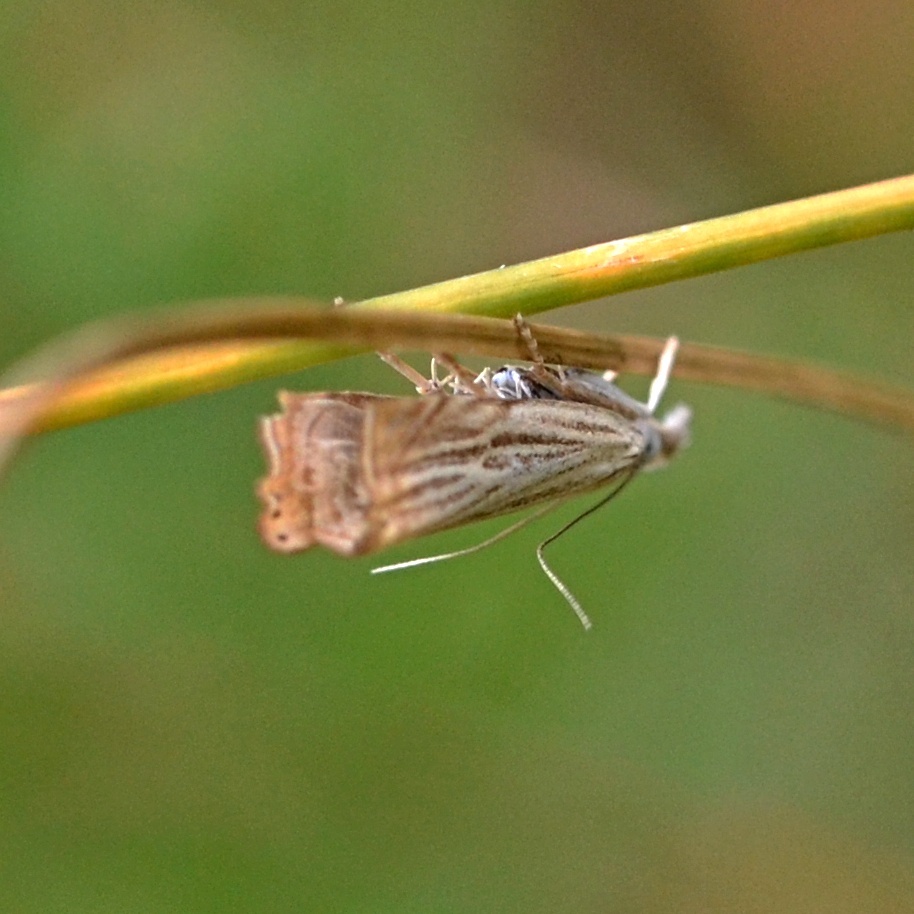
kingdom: Animalia
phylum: Arthropoda
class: Insecta
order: Lepidoptera
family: Crambidae
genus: Chrysoteuchia
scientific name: Chrysoteuchia culmella
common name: Garden grass-veneer
